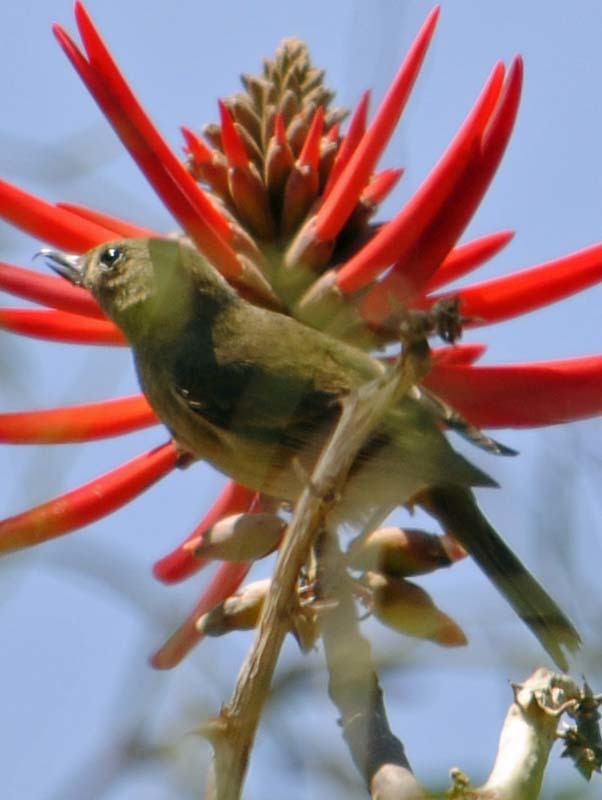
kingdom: Animalia
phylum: Chordata
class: Aves
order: Passeriformes
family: Thraupidae
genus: Diglossa
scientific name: Diglossa baritula
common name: Cinnamon-bellied flowerpiercer
